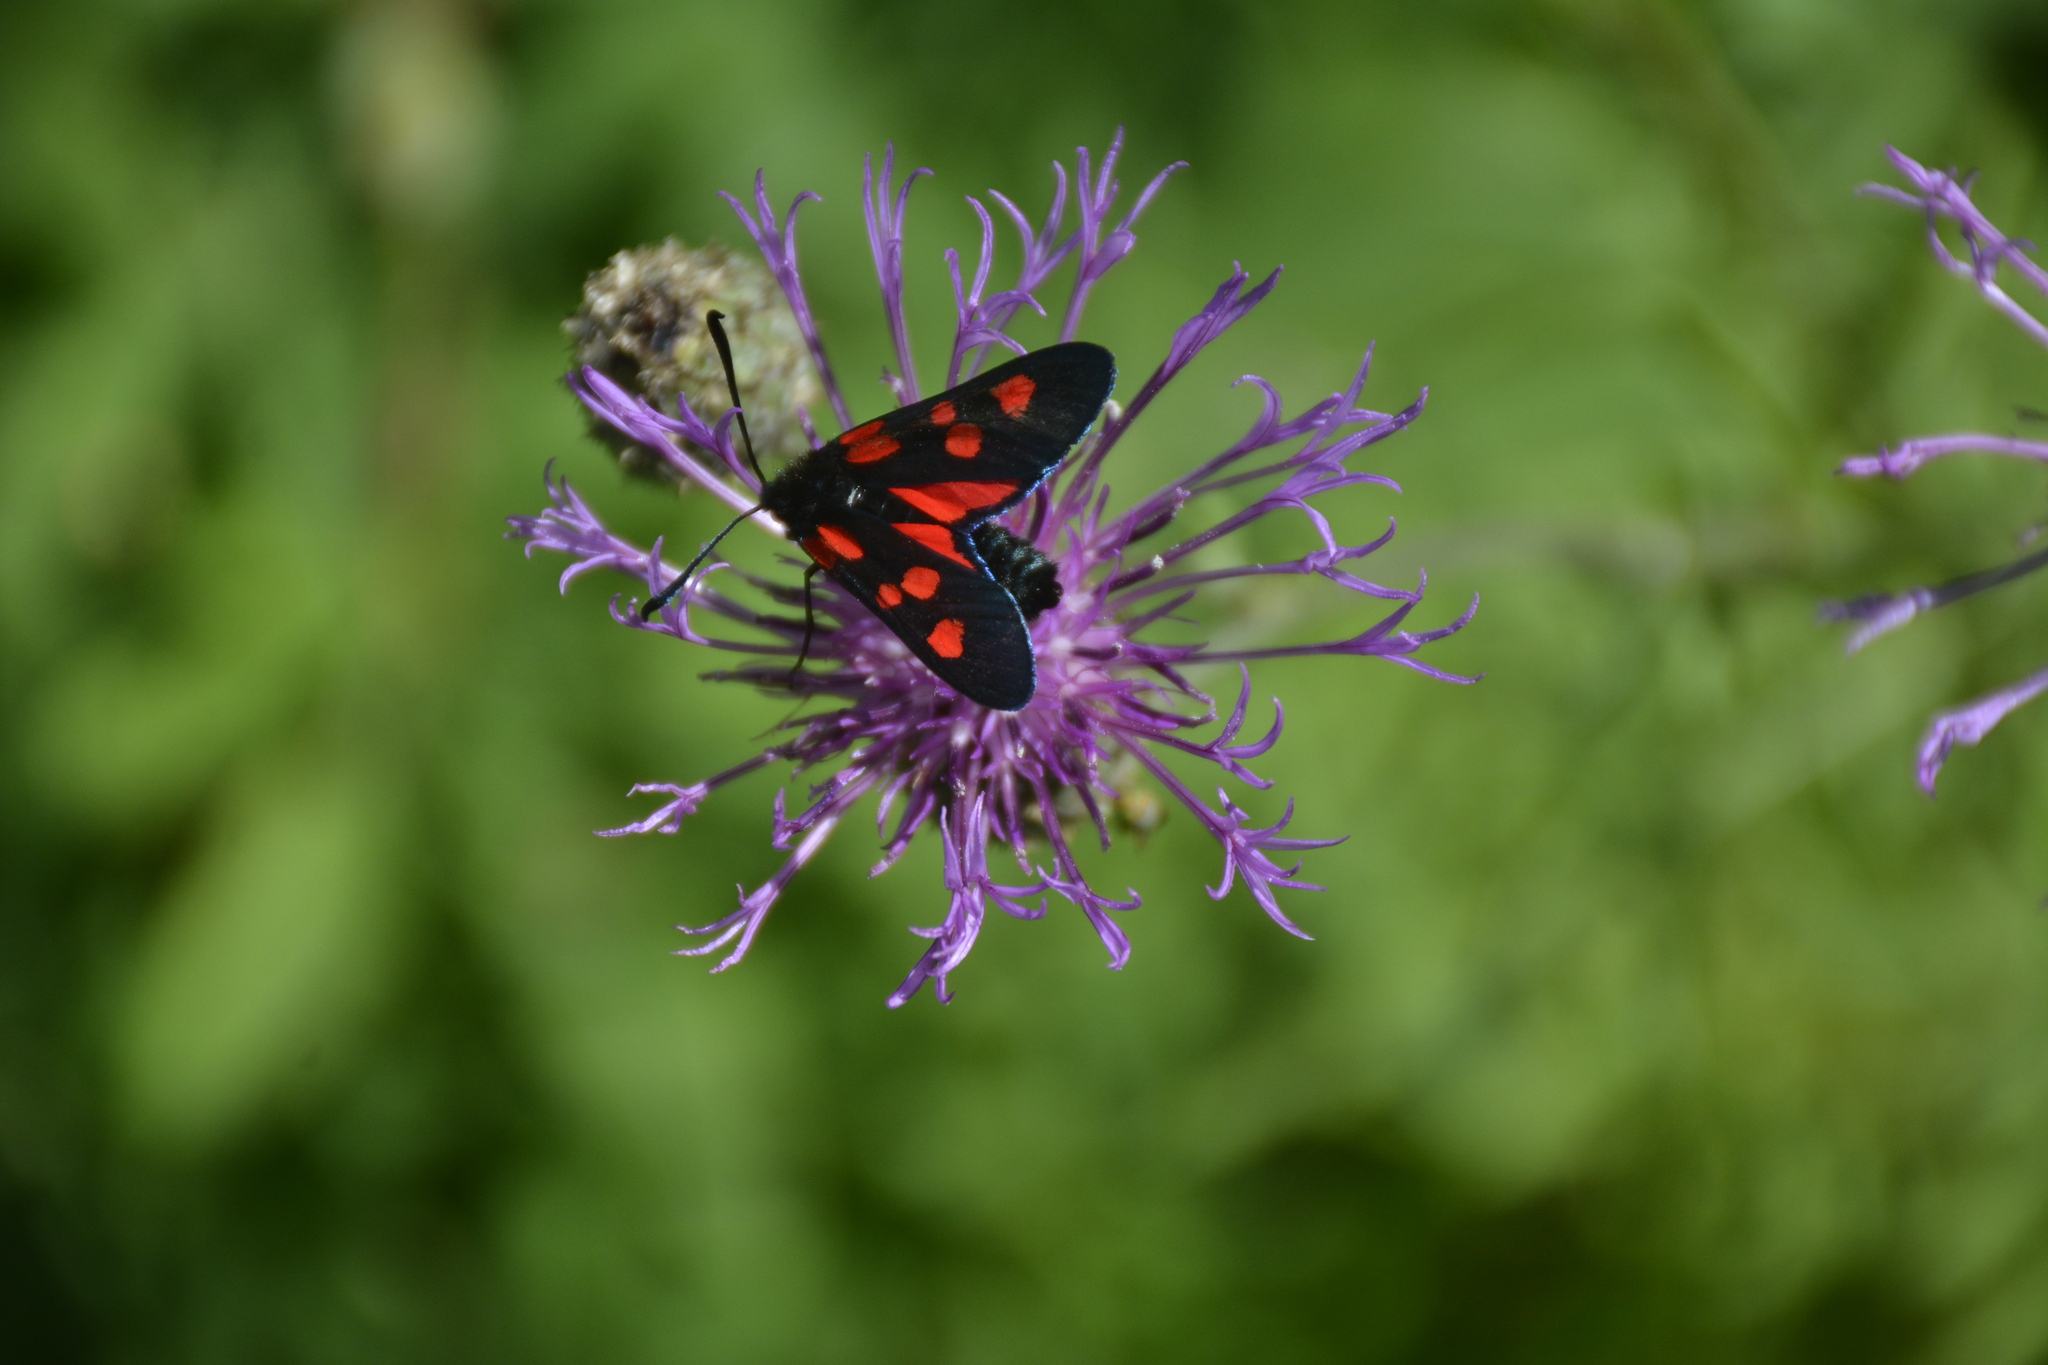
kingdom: Animalia
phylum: Arthropoda
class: Insecta
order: Lepidoptera
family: Zygaenidae
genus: Zygaena
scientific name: Zygaena lonicerae
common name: Narrow-bordered five-spot burnet
